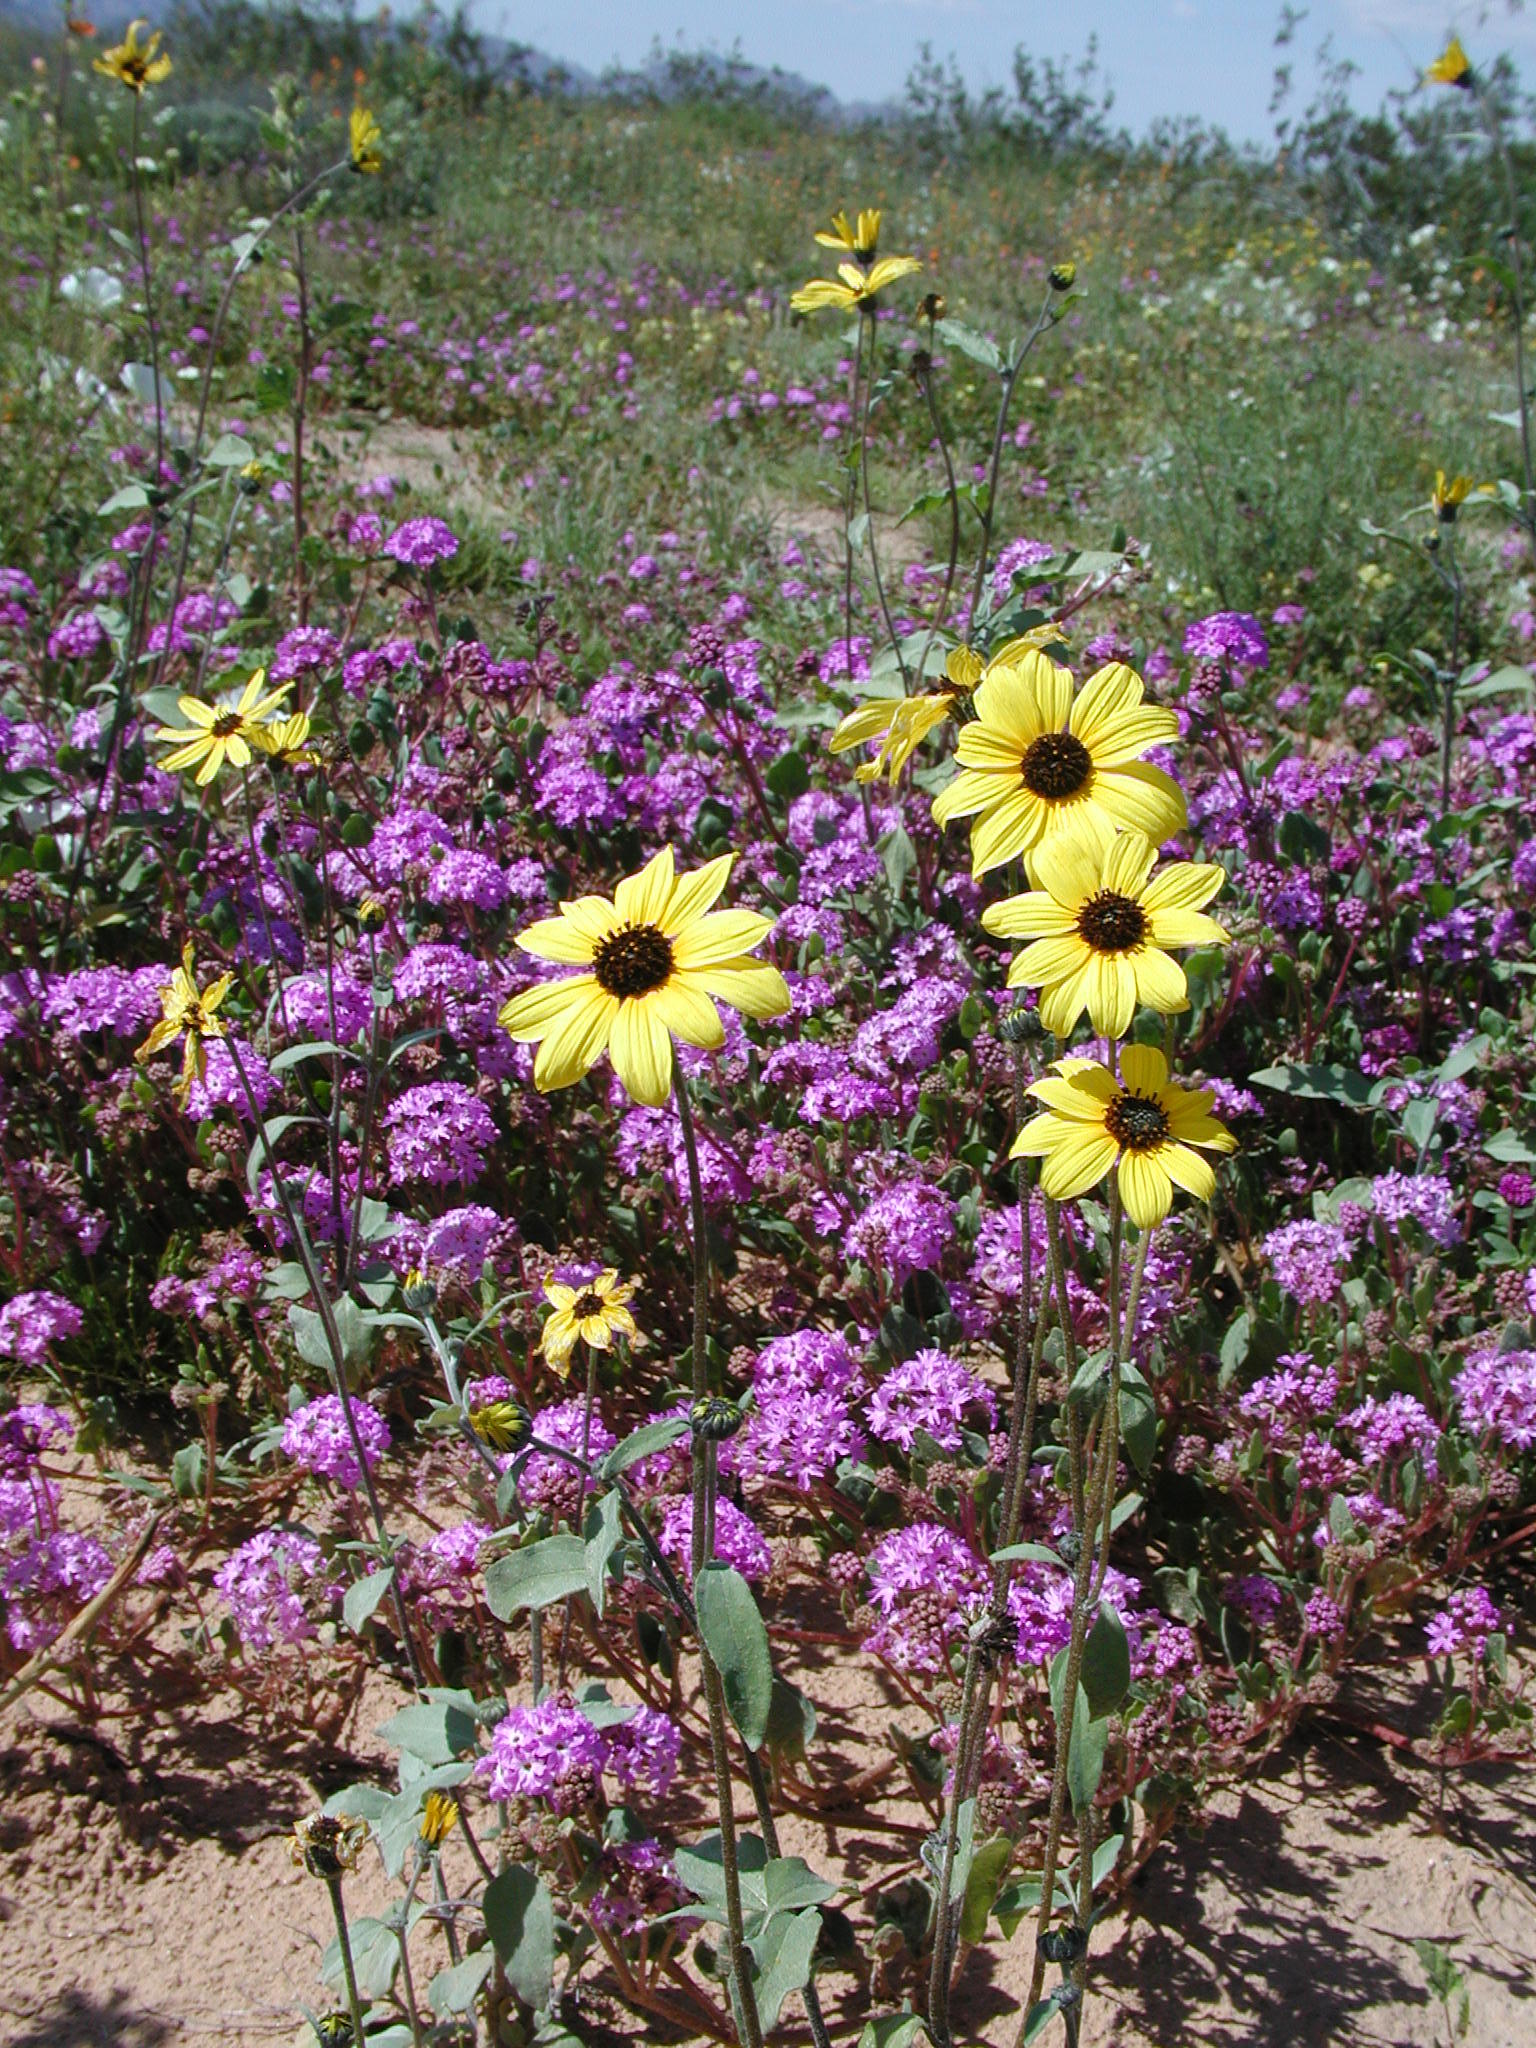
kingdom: Plantae
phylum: Tracheophyta
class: Magnoliopsida
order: Asterales
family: Asteraceae
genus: Helianthus
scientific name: Helianthus petiolaris
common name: Lesser sunflower
